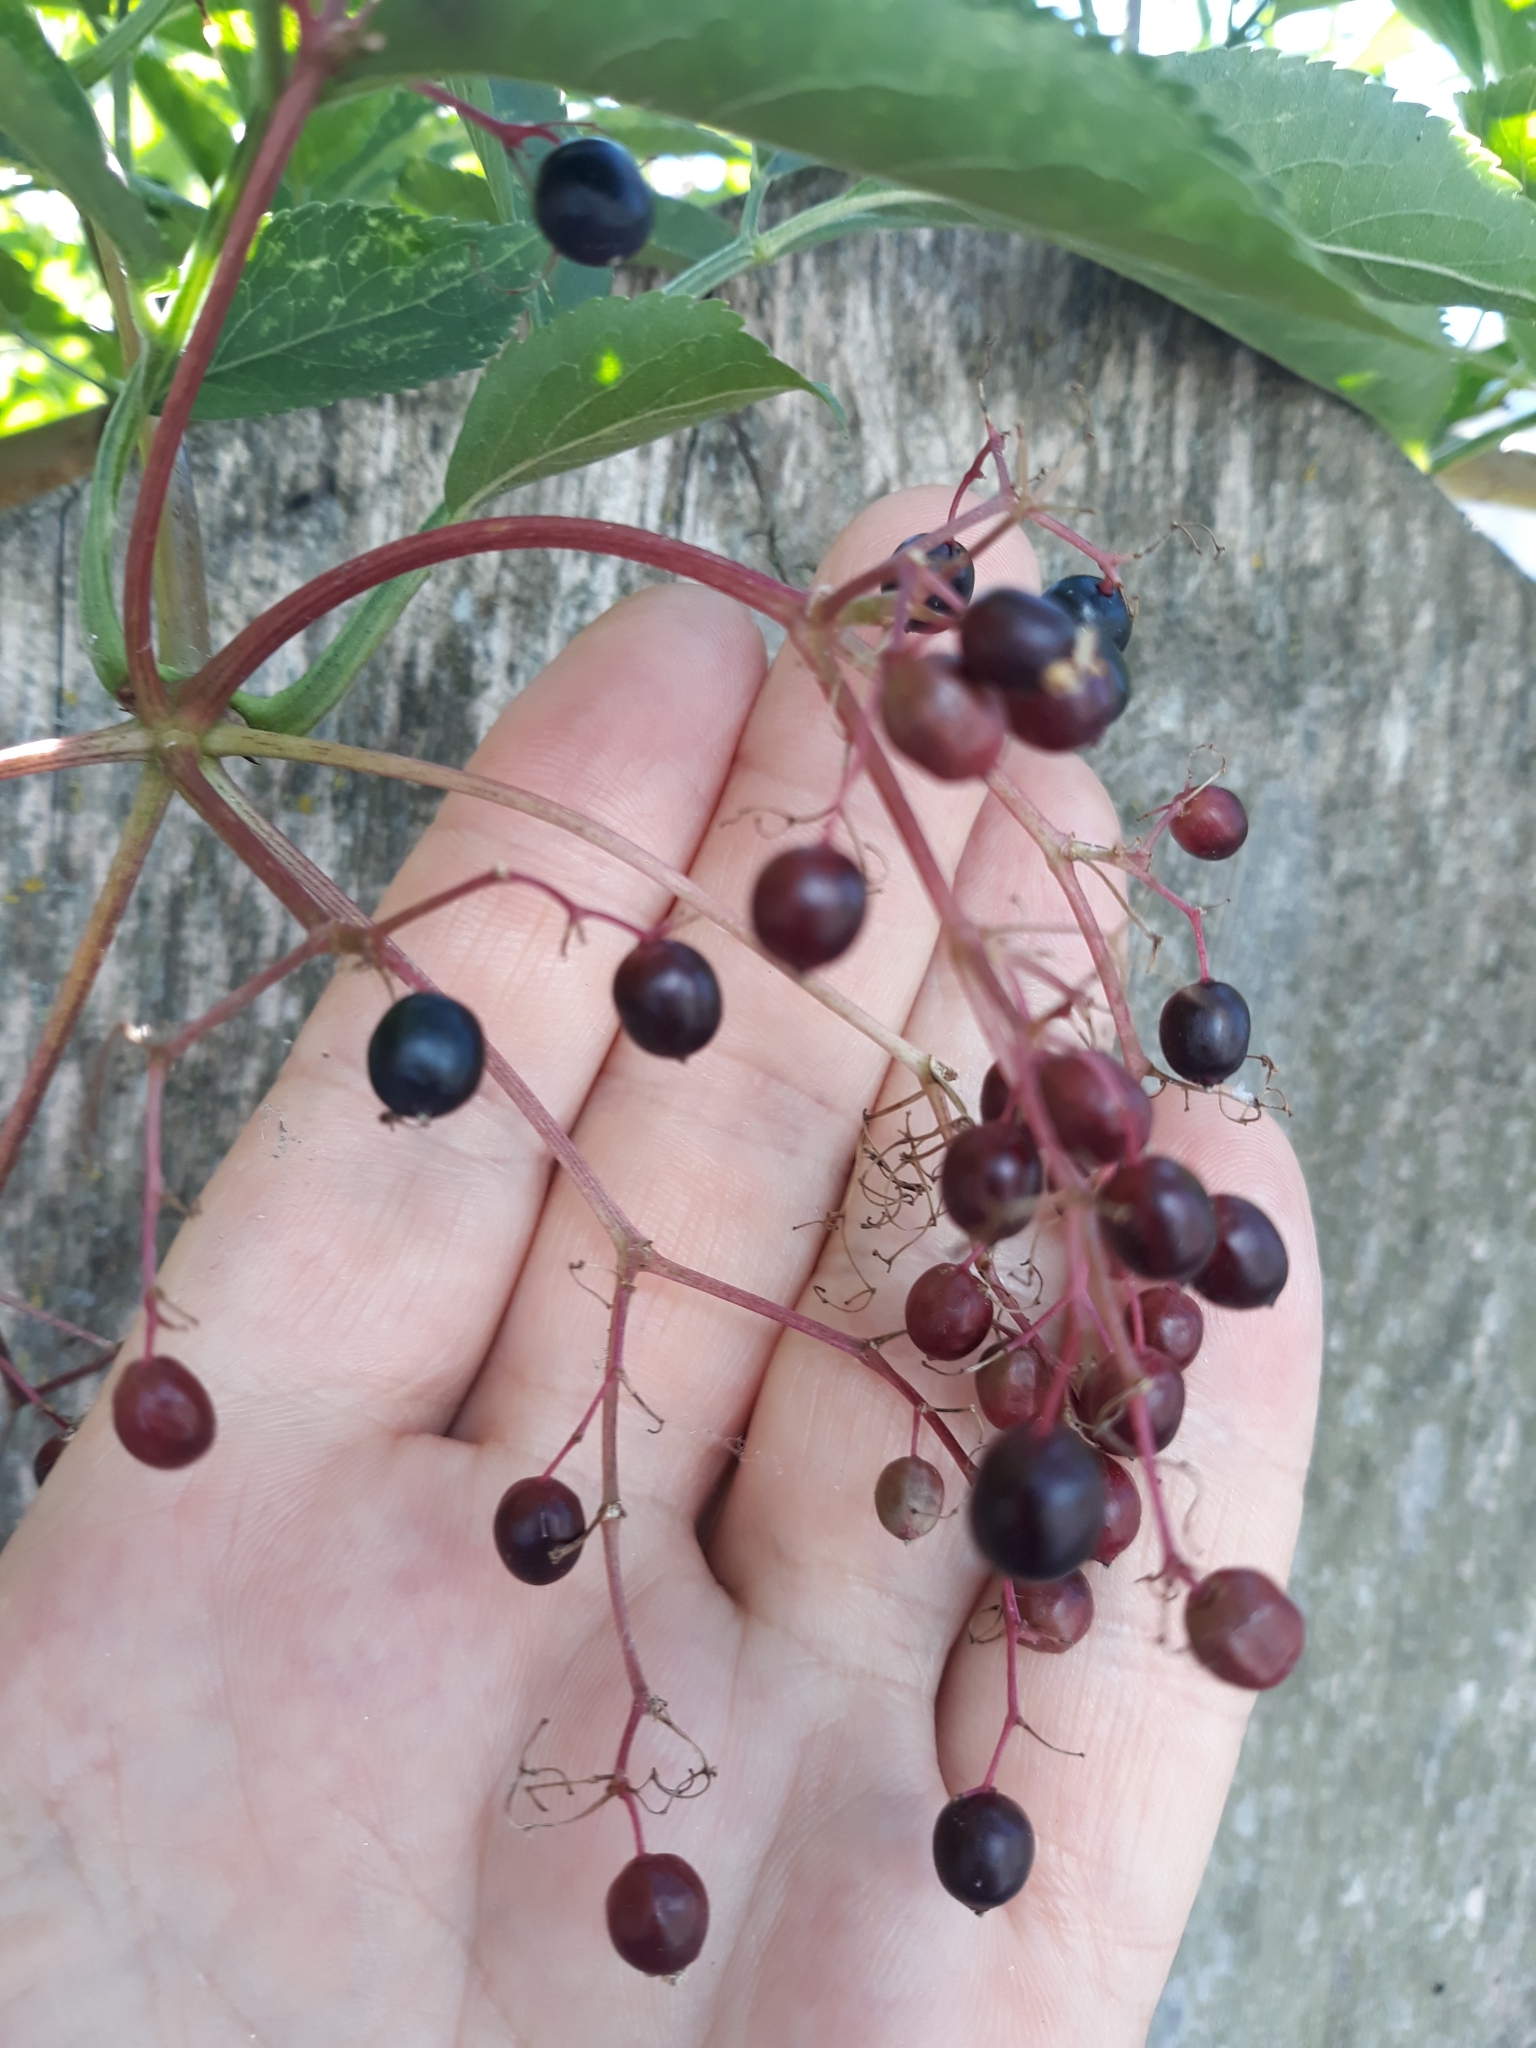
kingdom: Plantae
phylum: Tracheophyta
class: Magnoliopsida
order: Dipsacales
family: Viburnaceae
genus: Sambucus
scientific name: Sambucus nigra
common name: Elder
